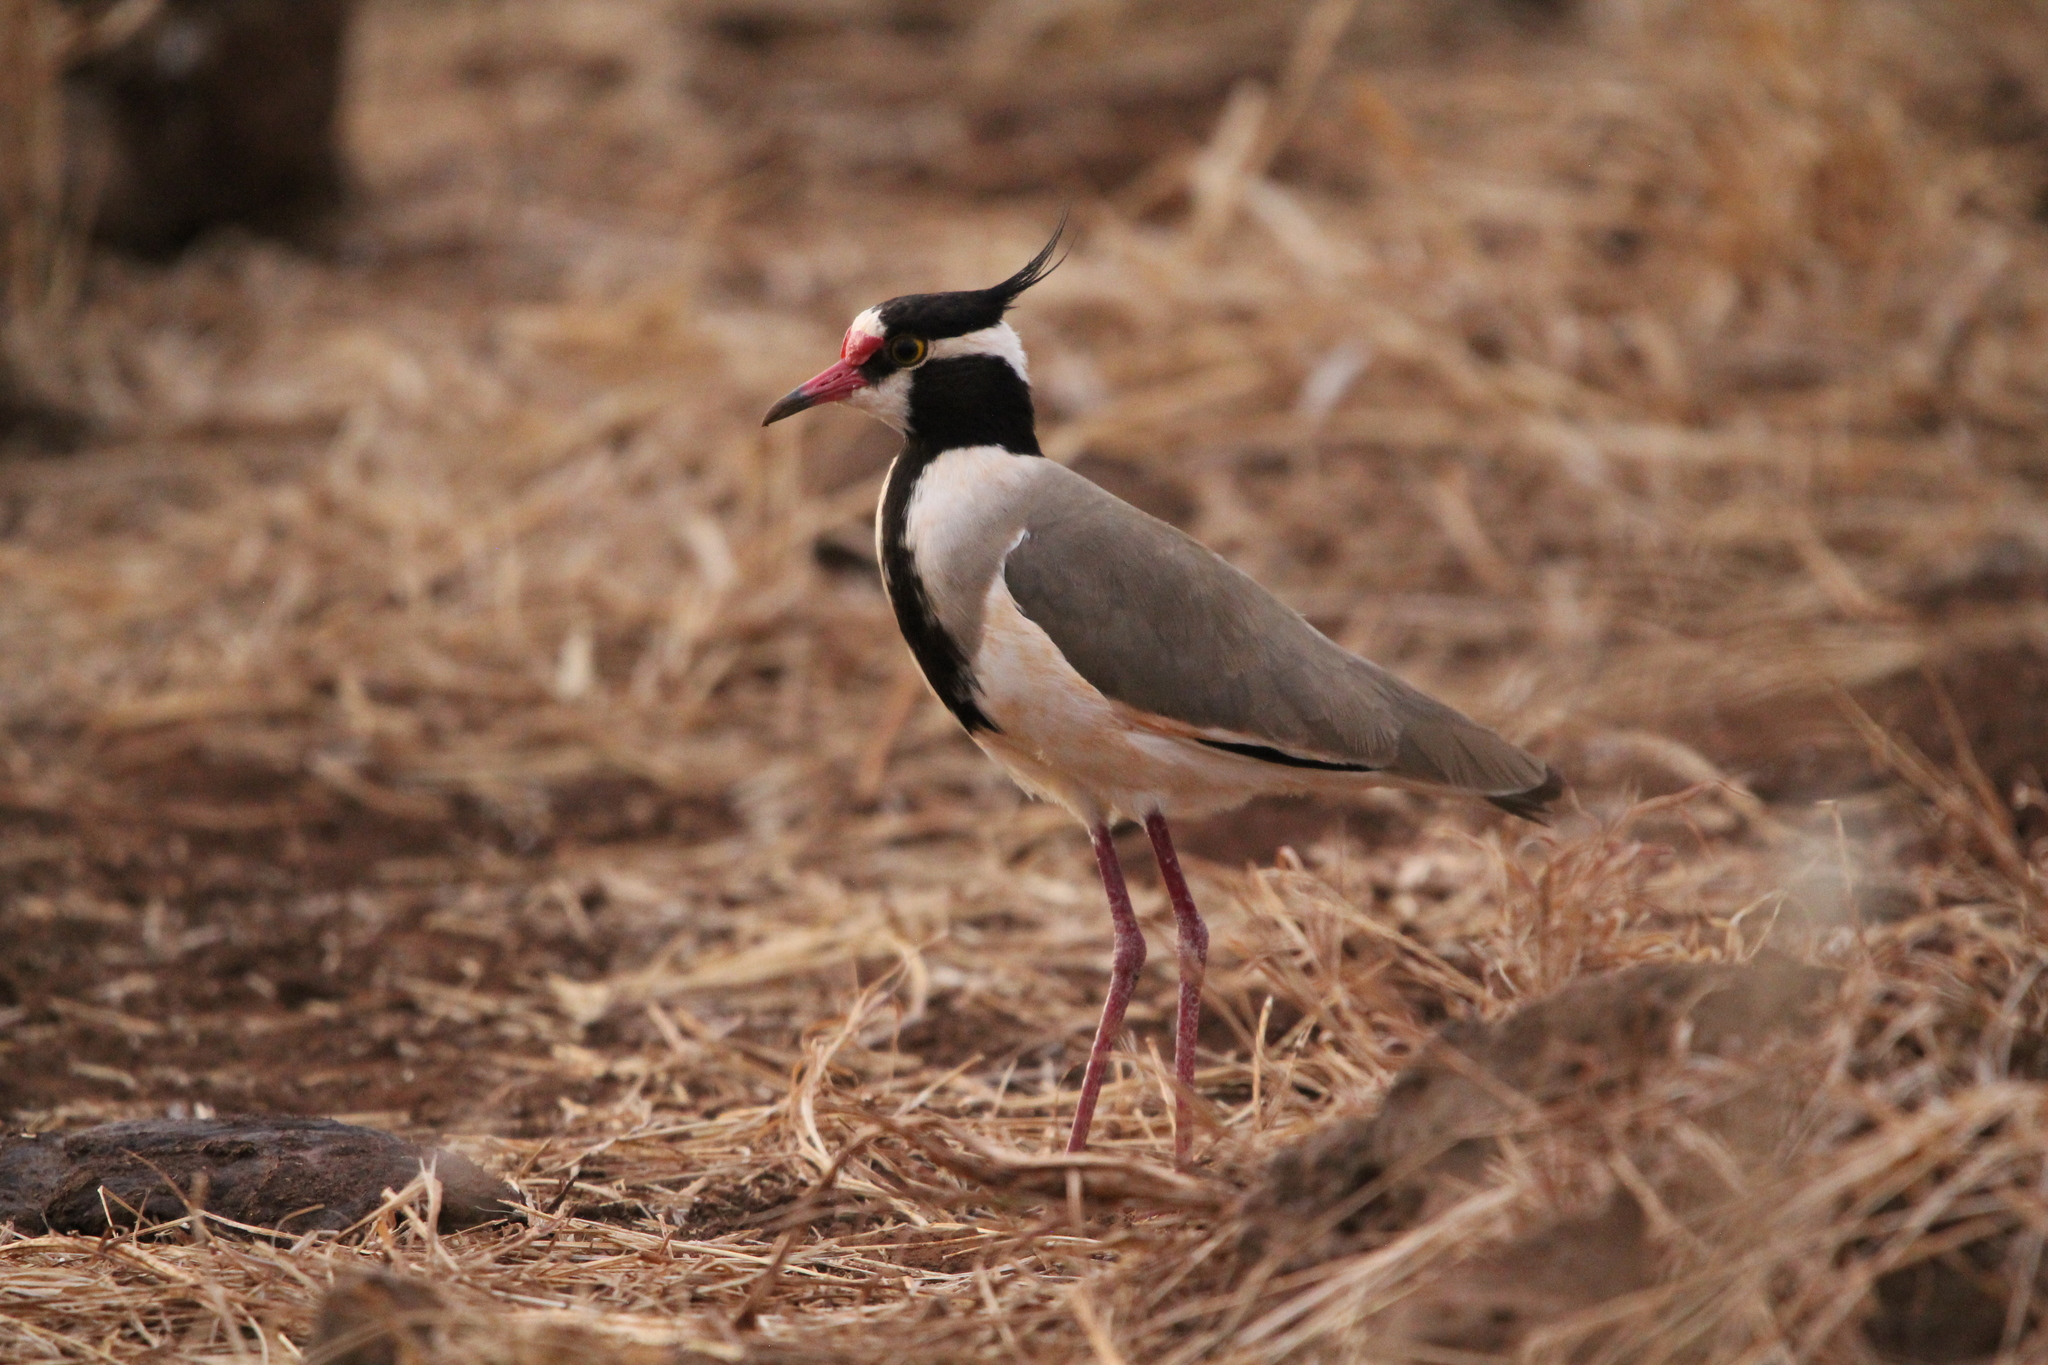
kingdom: Animalia
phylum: Chordata
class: Aves
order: Charadriiformes
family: Charadriidae
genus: Vanellus
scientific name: Vanellus tectus
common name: Black-headed lapwing
